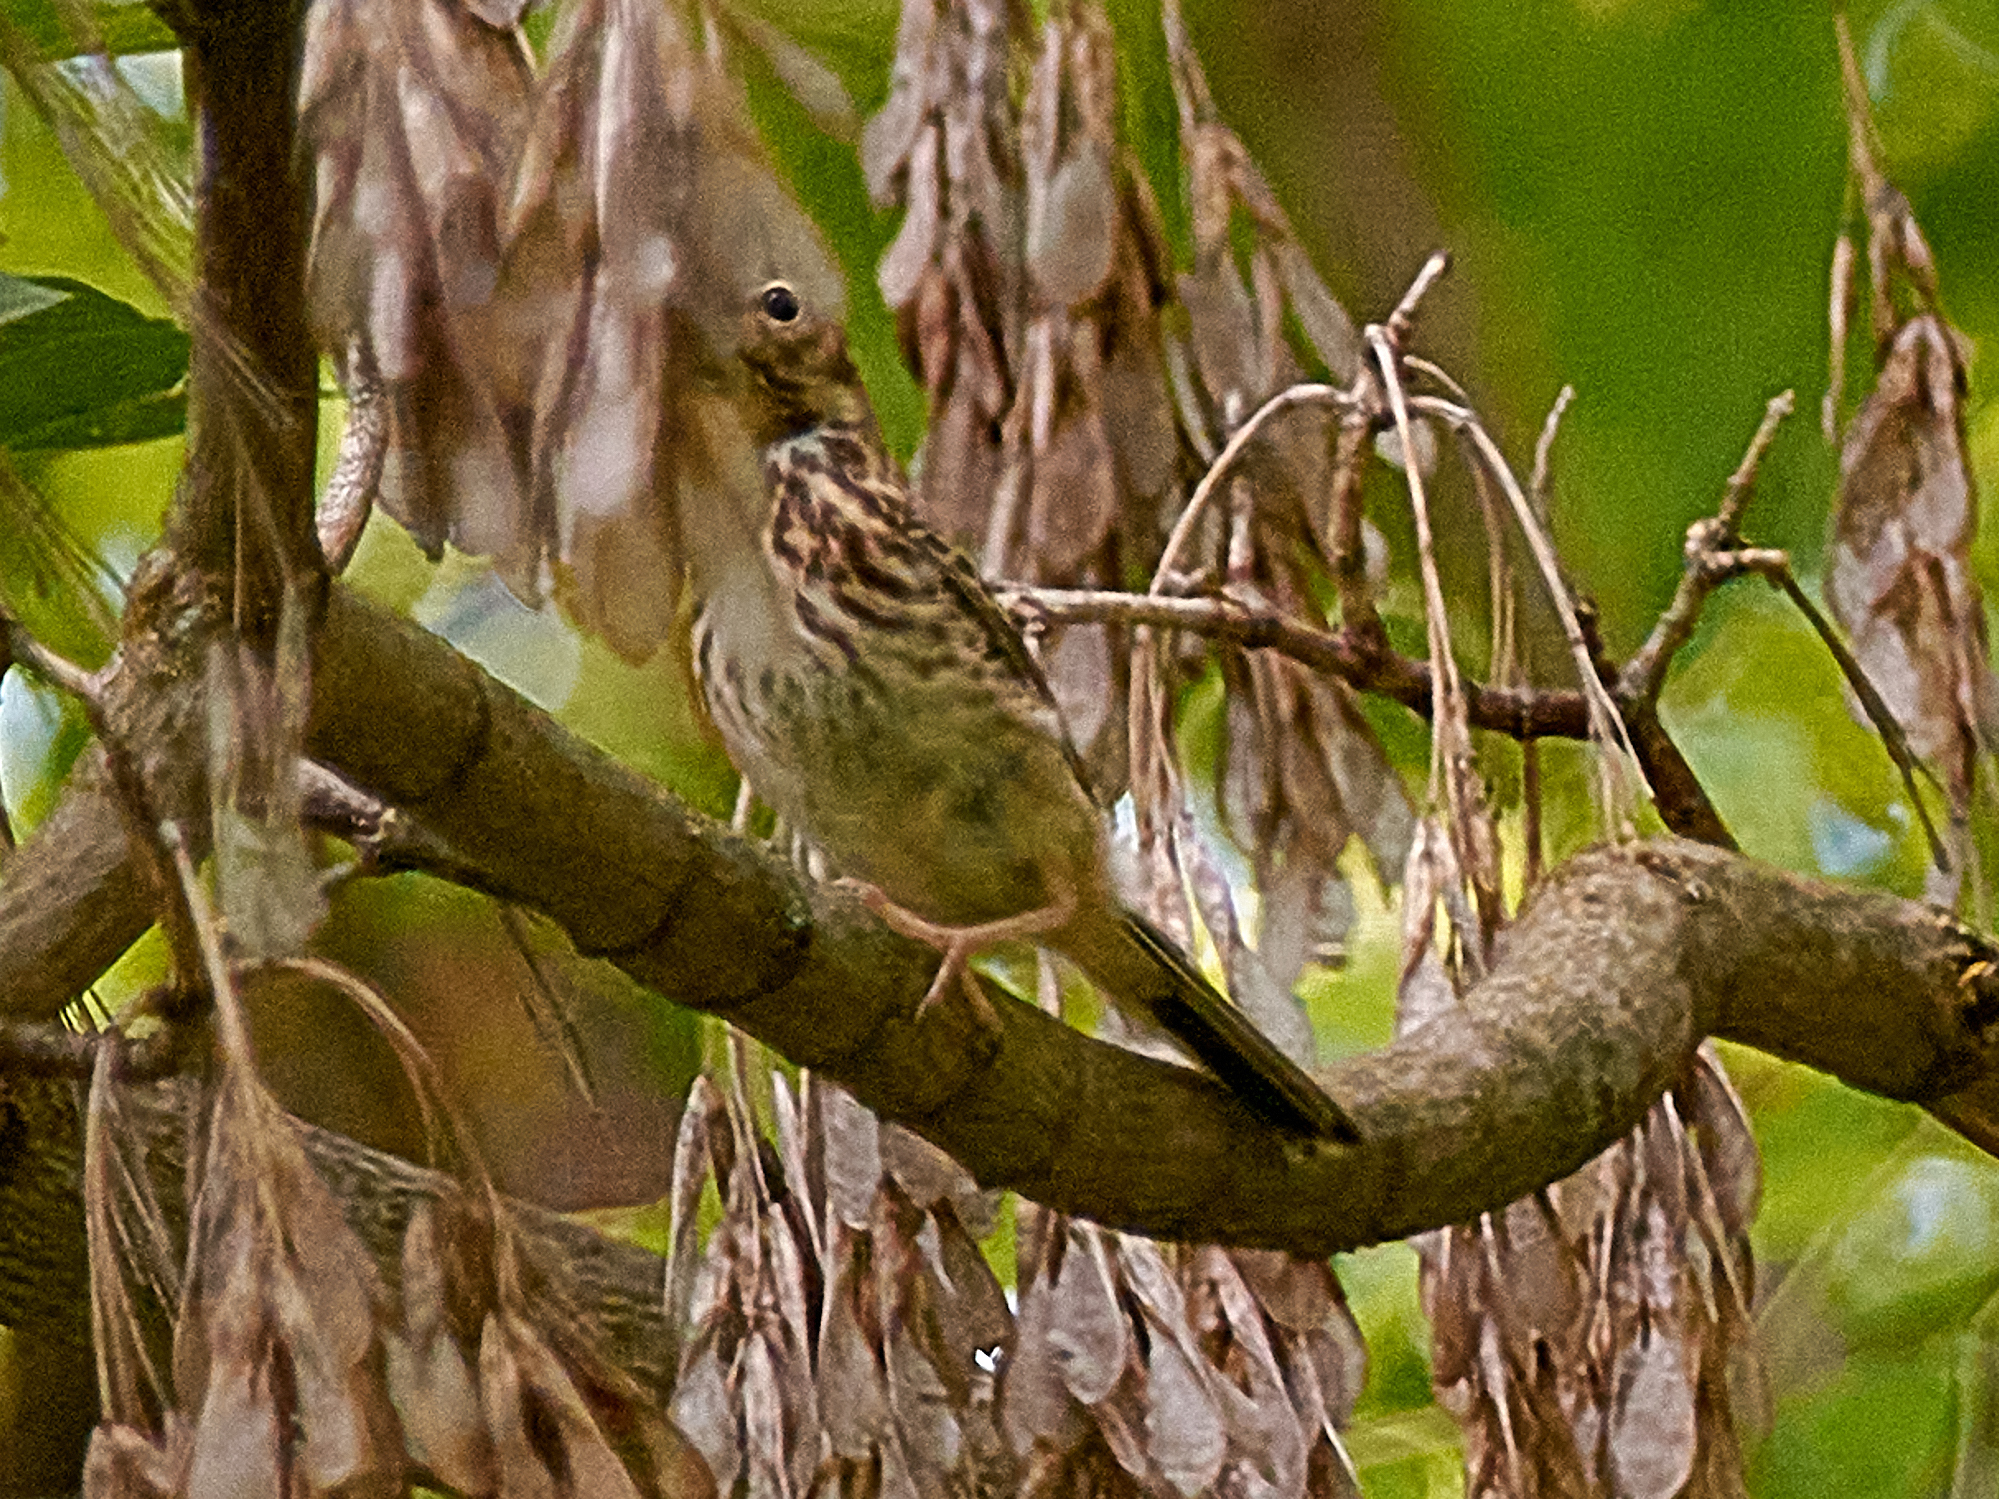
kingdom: Animalia
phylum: Chordata
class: Aves
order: Passeriformes
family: Motacillidae
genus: Anthus
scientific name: Anthus trivialis
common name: Tree pipit
